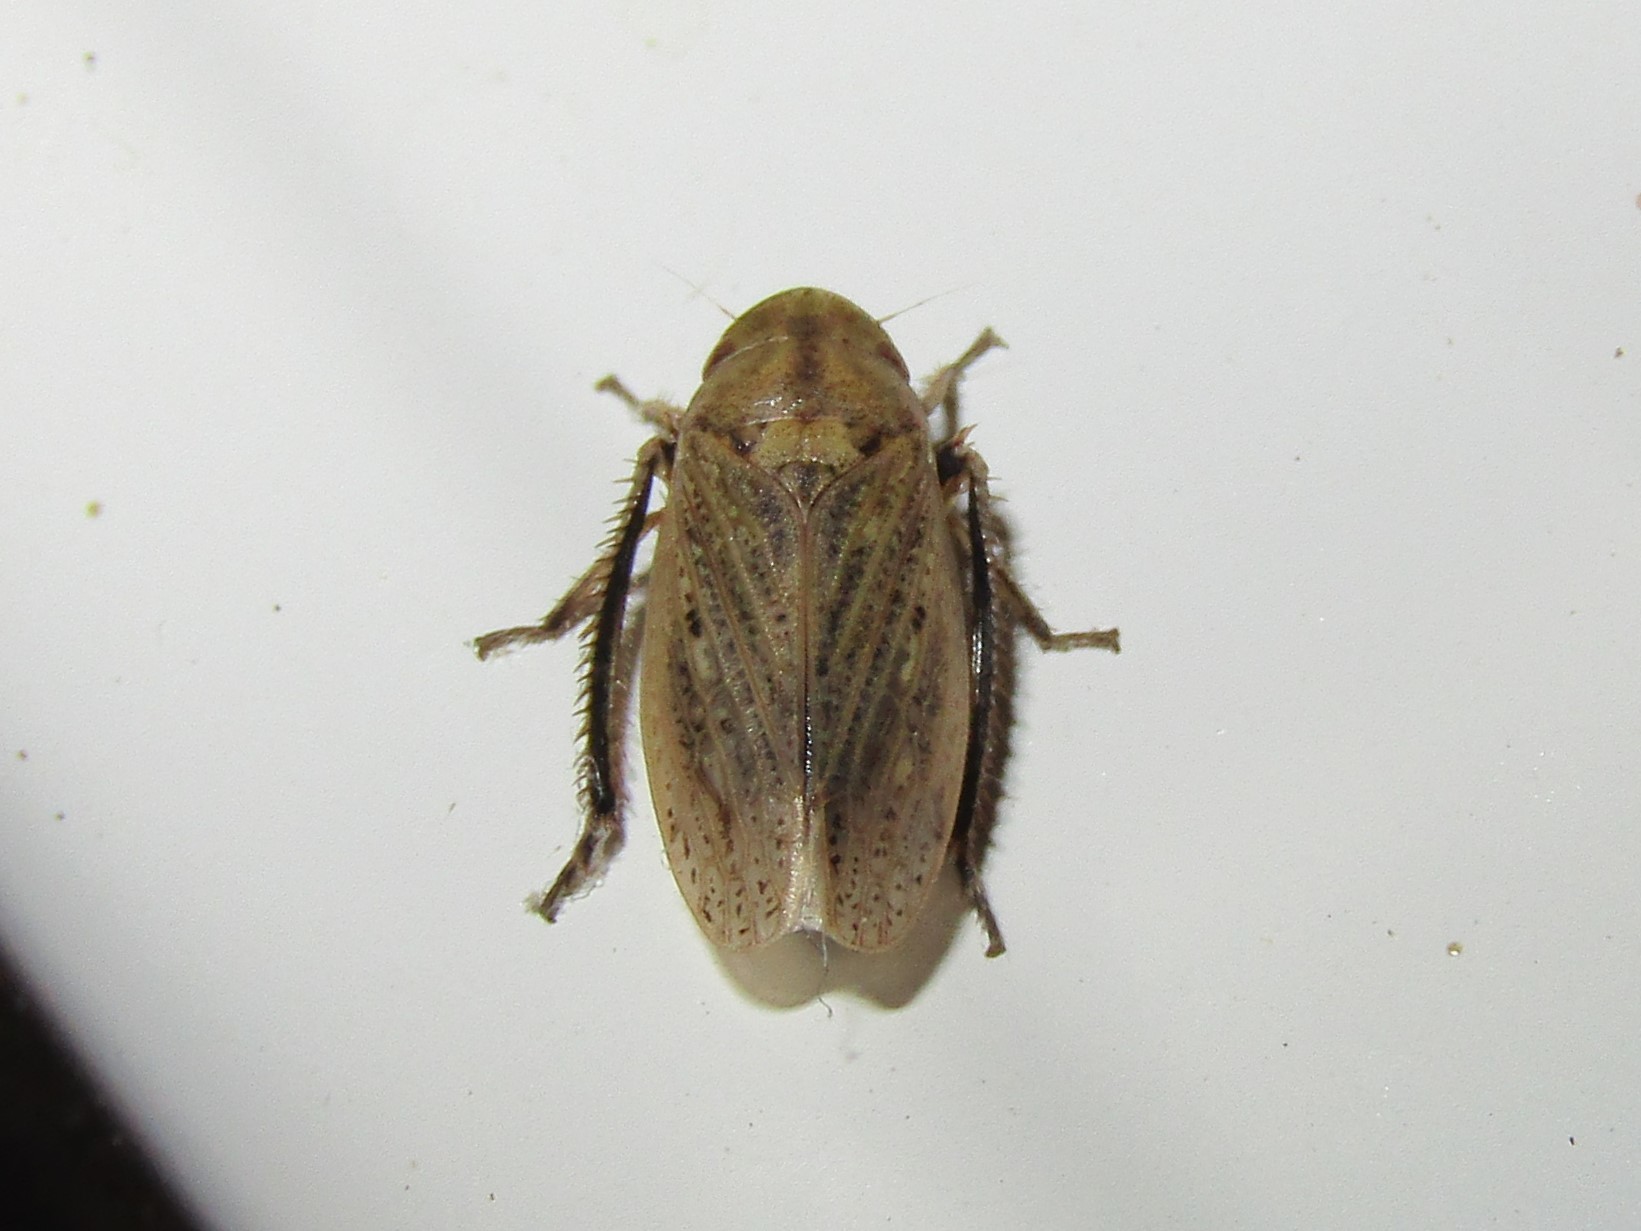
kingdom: Animalia
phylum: Arthropoda
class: Insecta
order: Hemiptera
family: Cicadellidae
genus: Negosiana
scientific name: Negosiana dualis
